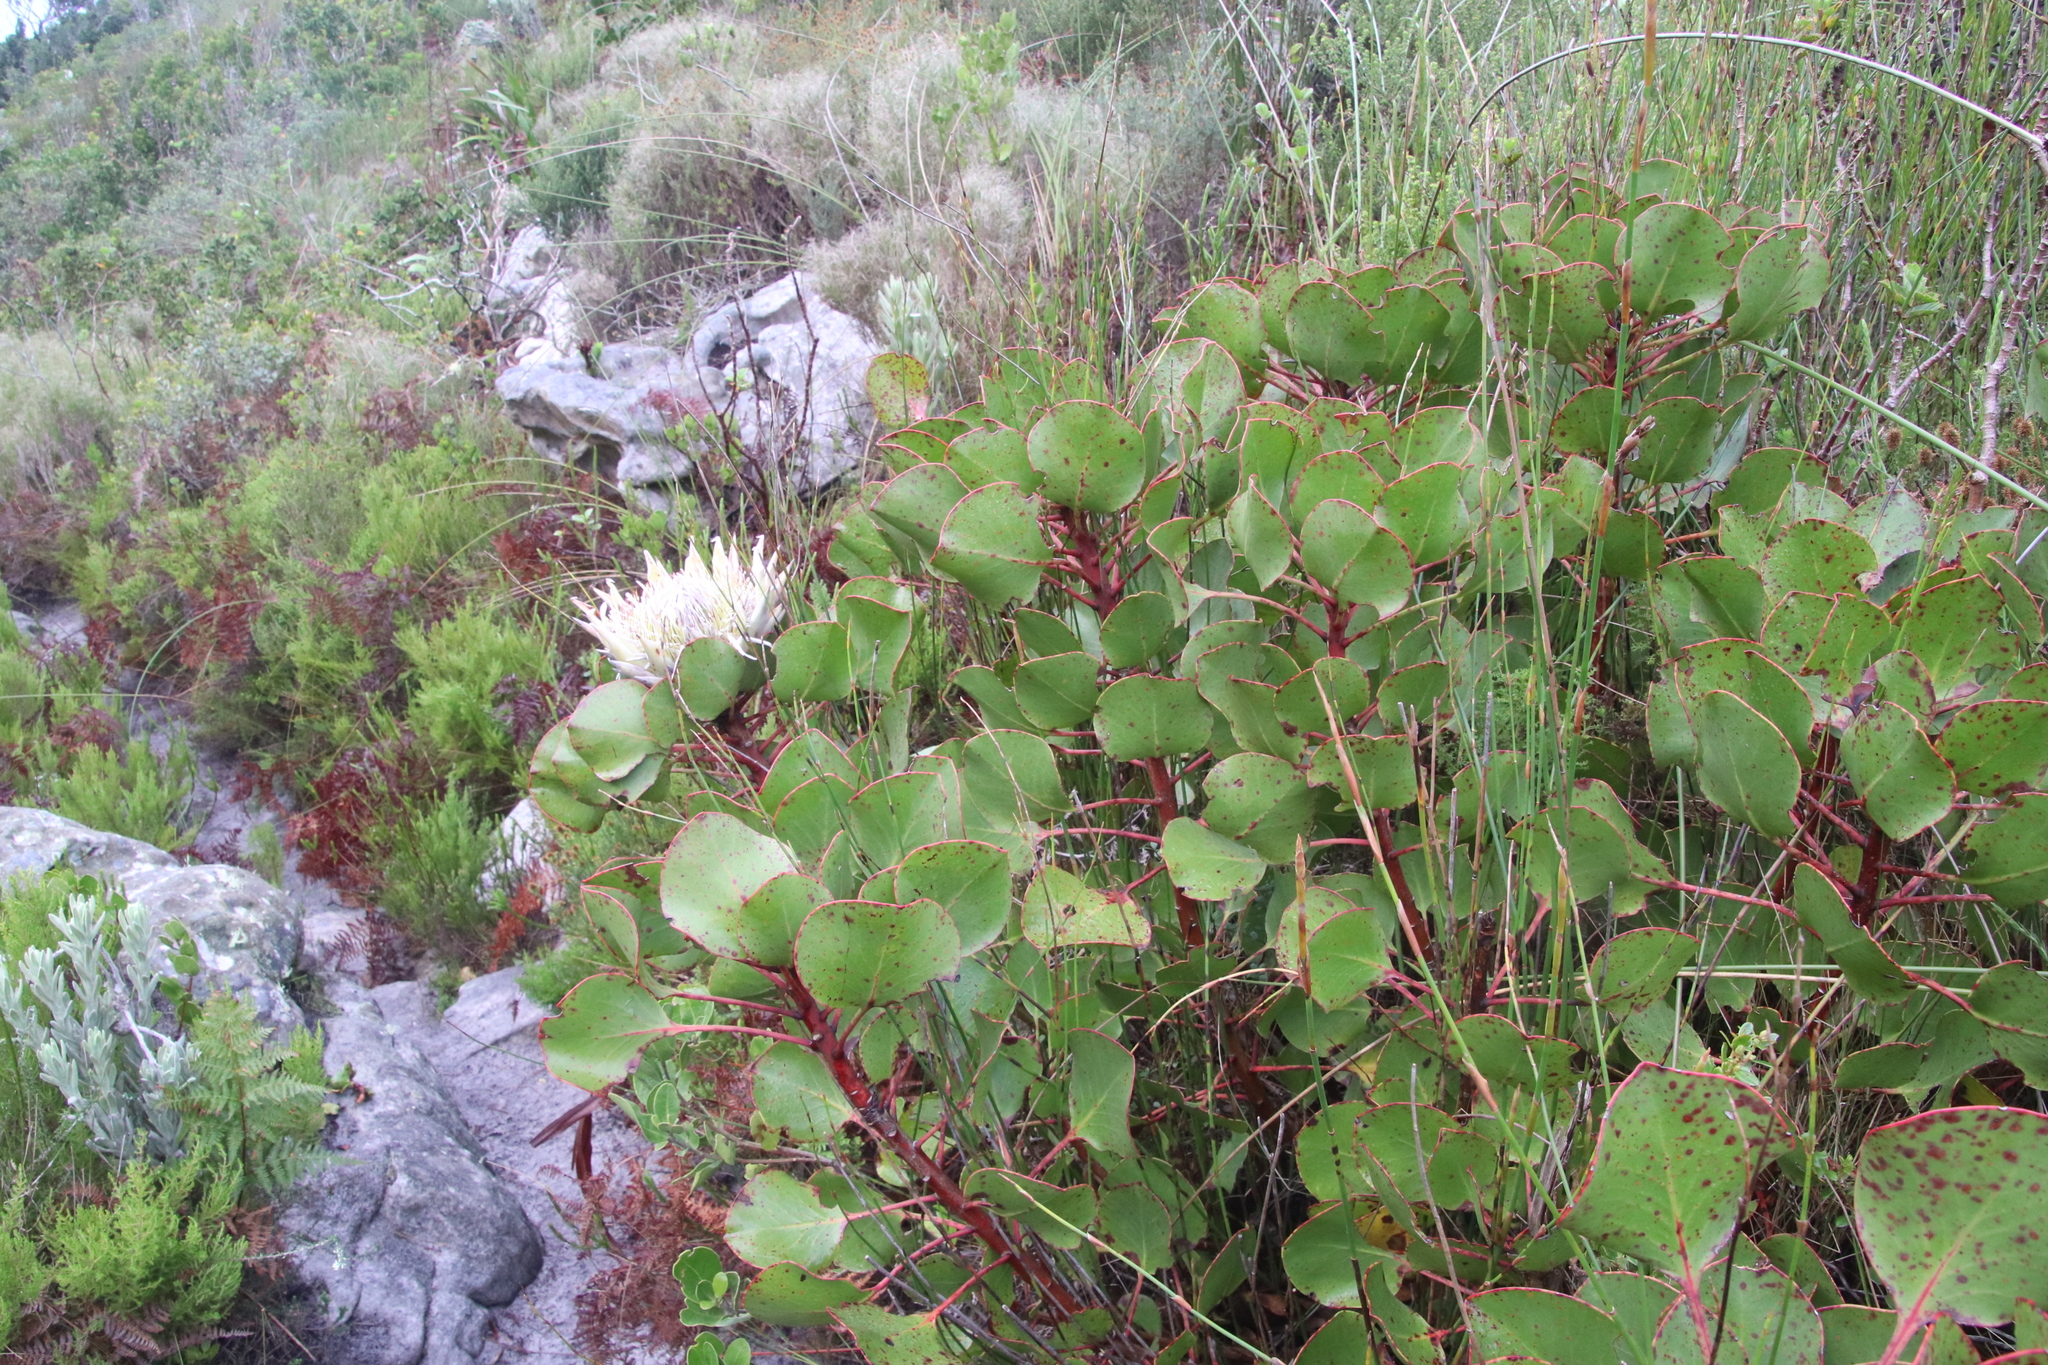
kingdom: Plantae
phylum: Tracheophyta
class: Magnoliopsida
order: Proteales
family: Proteaceae
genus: Protea
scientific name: Protea cynaroides
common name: King protea
